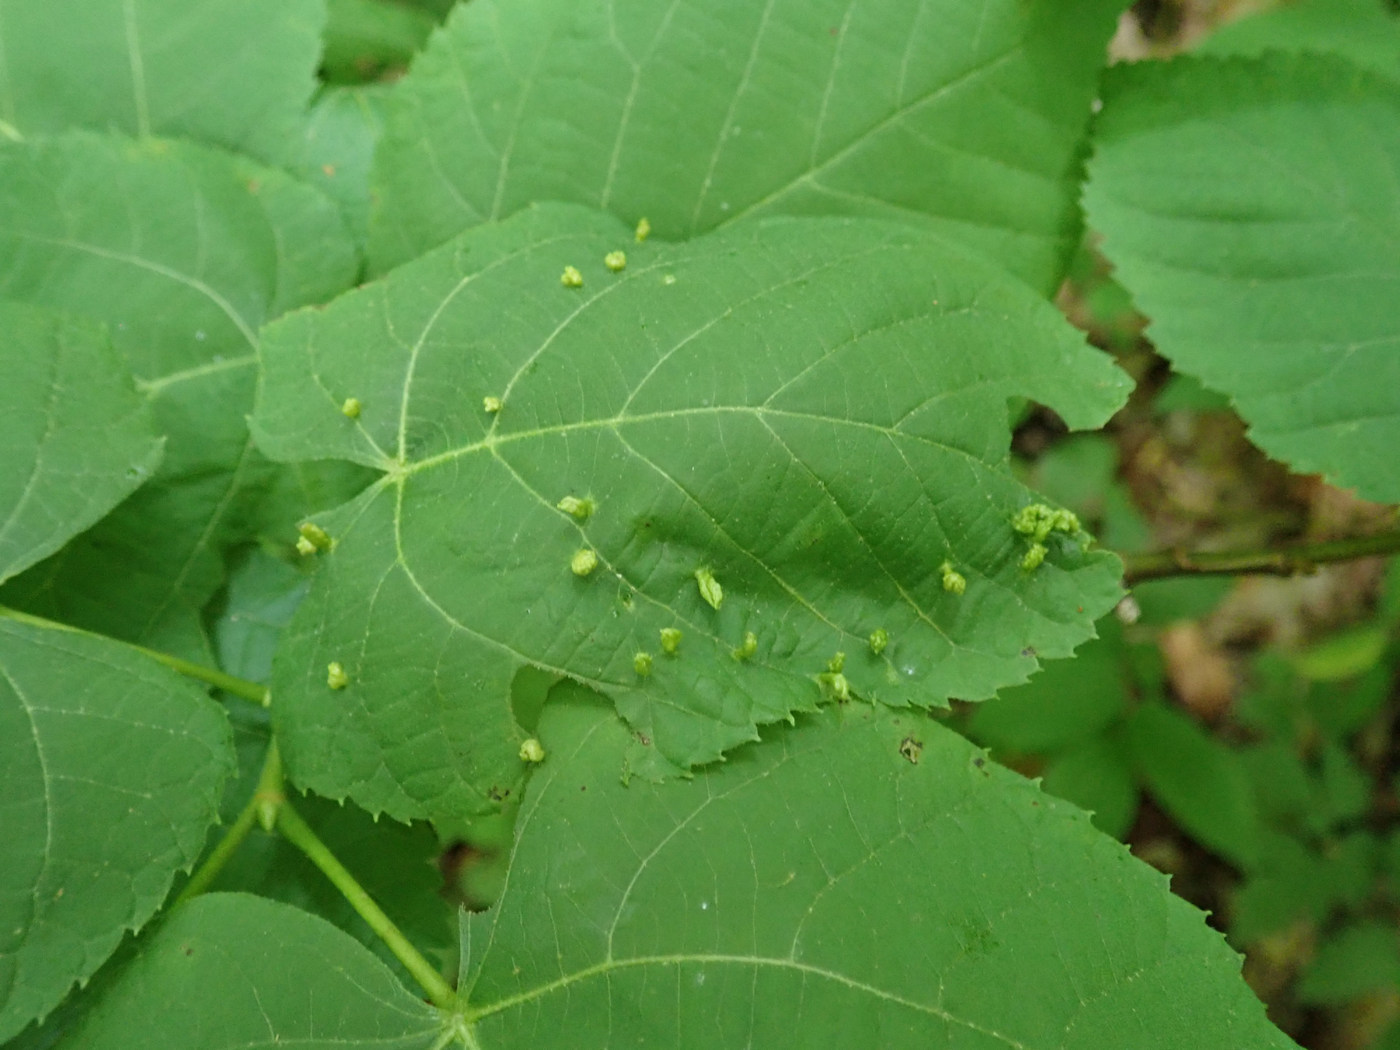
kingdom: Animalia
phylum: Arthropoda
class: Arachnida
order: Trombidiformes
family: Eriophyidae
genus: Eriophyes
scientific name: Eriophyes tiliae
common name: Red nail gall mite
